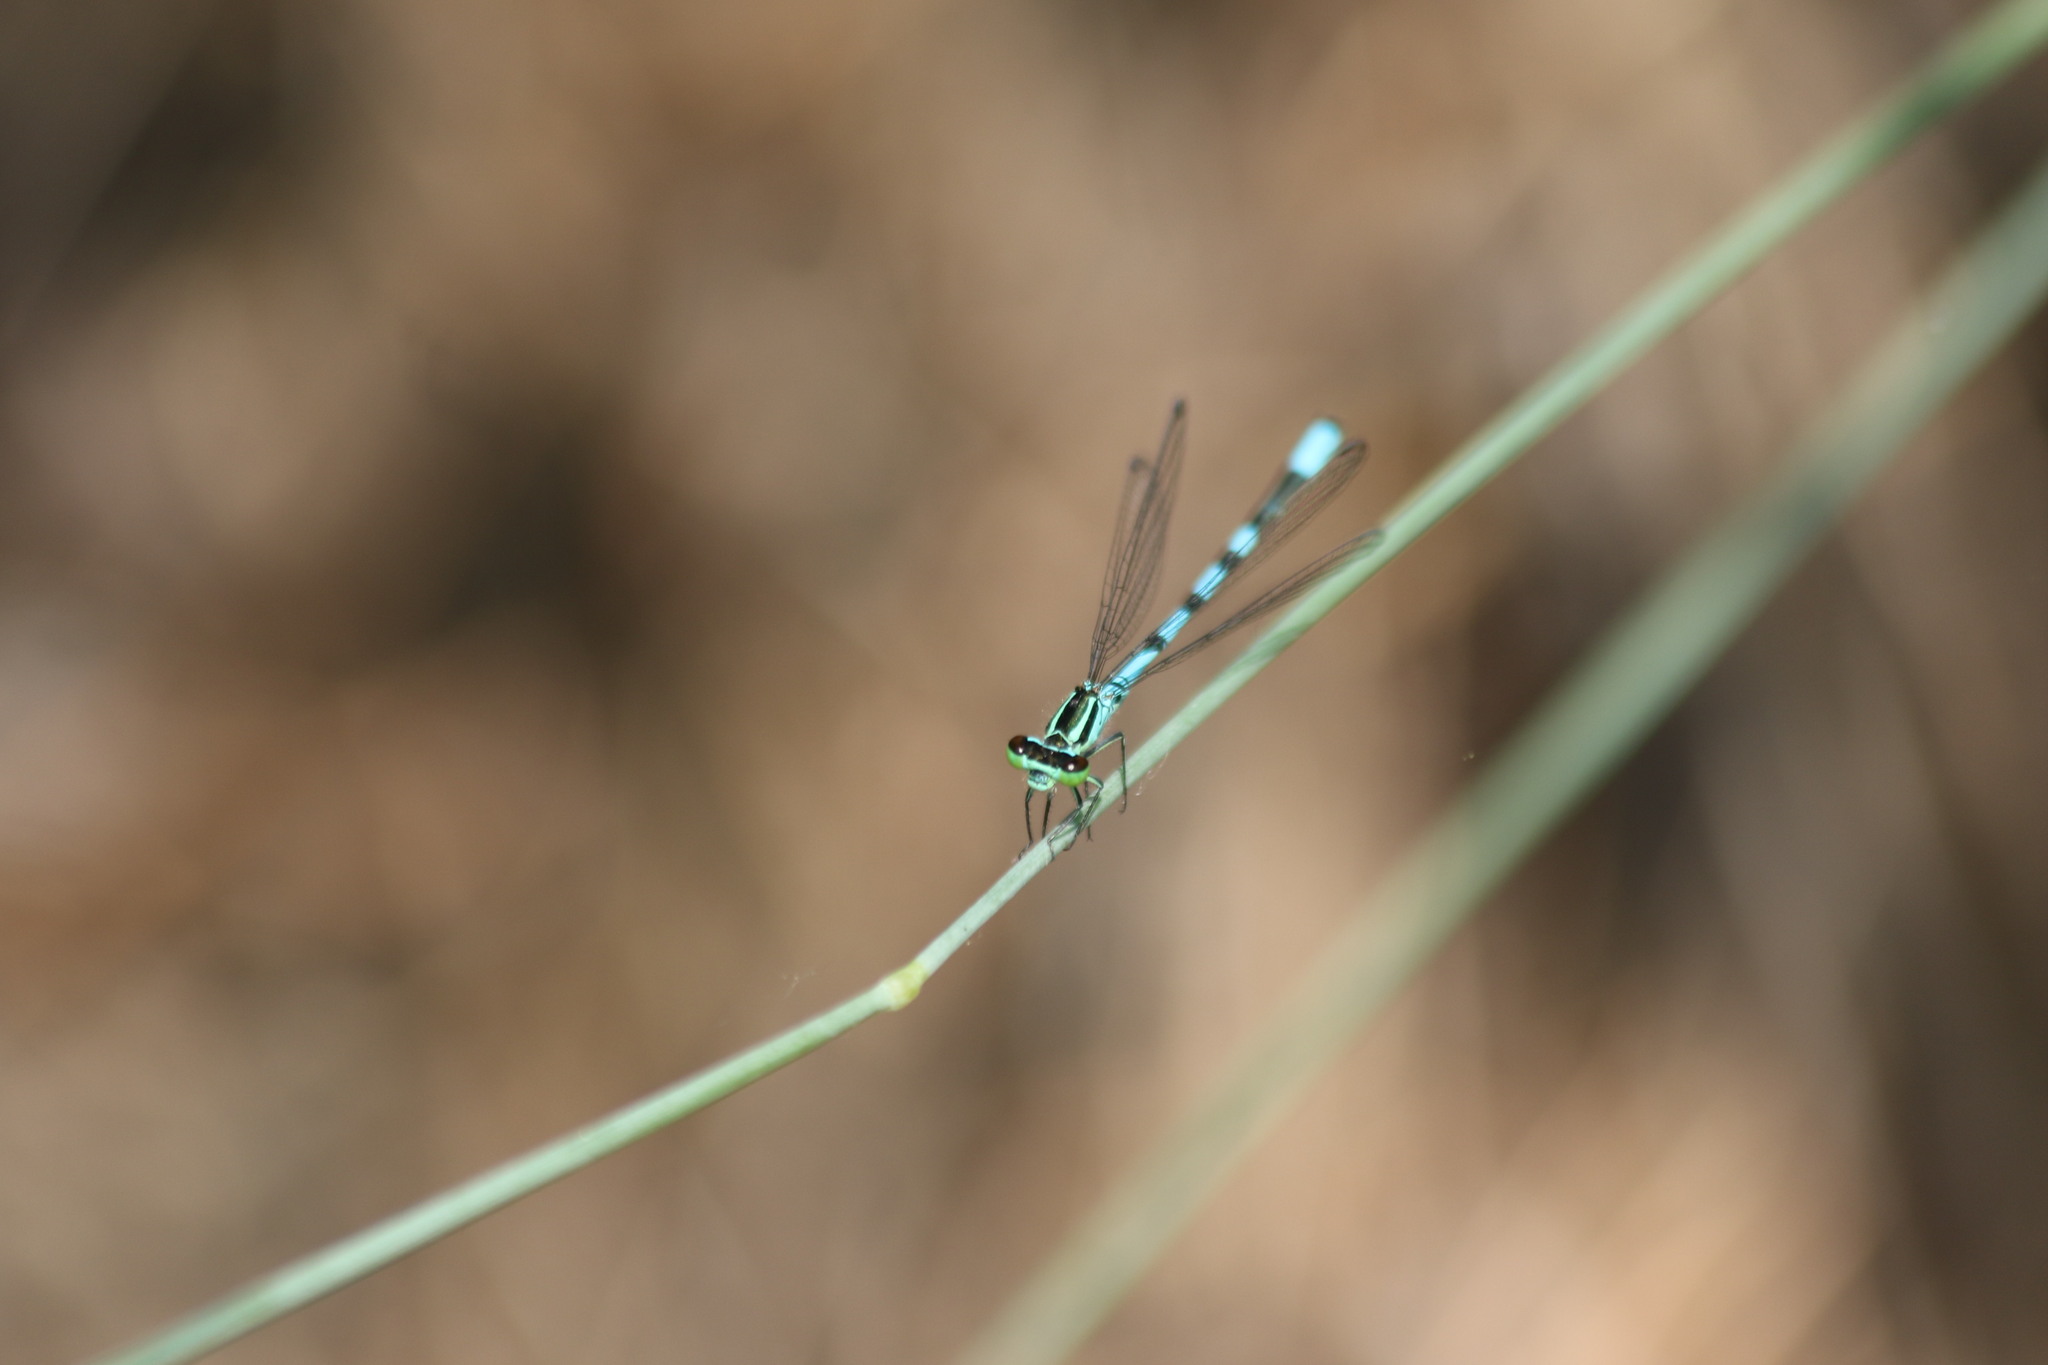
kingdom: Animalia
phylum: Arthropoda
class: Insecta
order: Odonata
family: Coenagrionidae
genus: Coenagrion
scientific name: Coenagrion hastulatum
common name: Spearhead bluet
